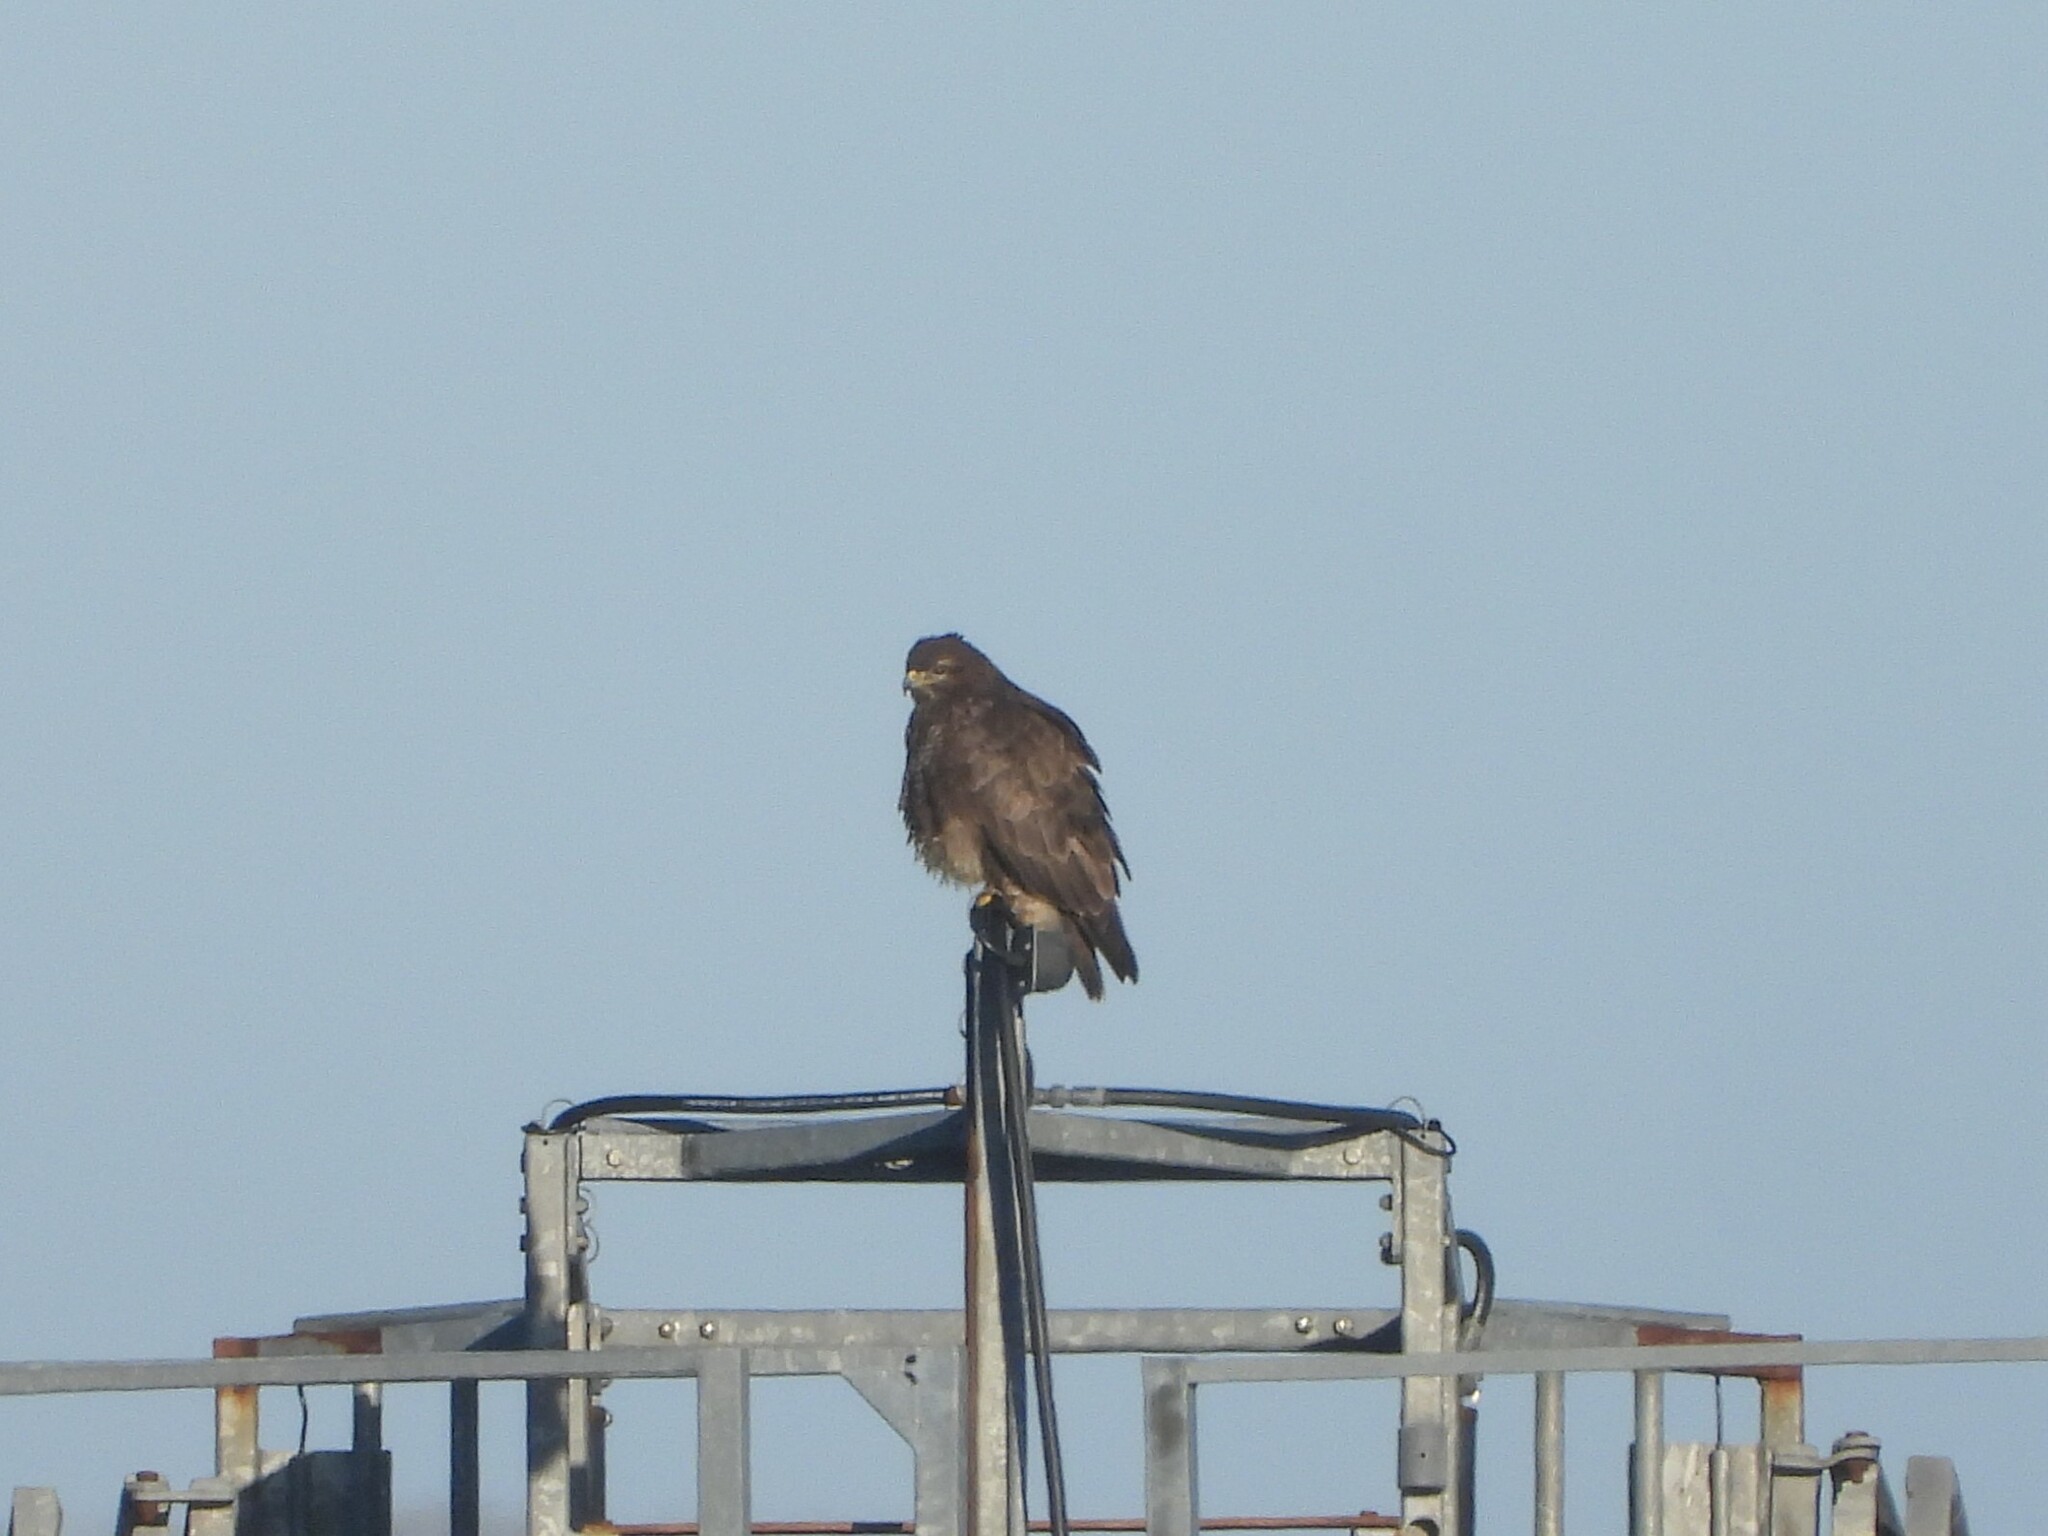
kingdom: Animalia
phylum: Chordata
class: Aves
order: Accipitriformes
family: Accipitridae
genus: Buteo
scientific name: Buteo buteo
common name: Common buzzard
